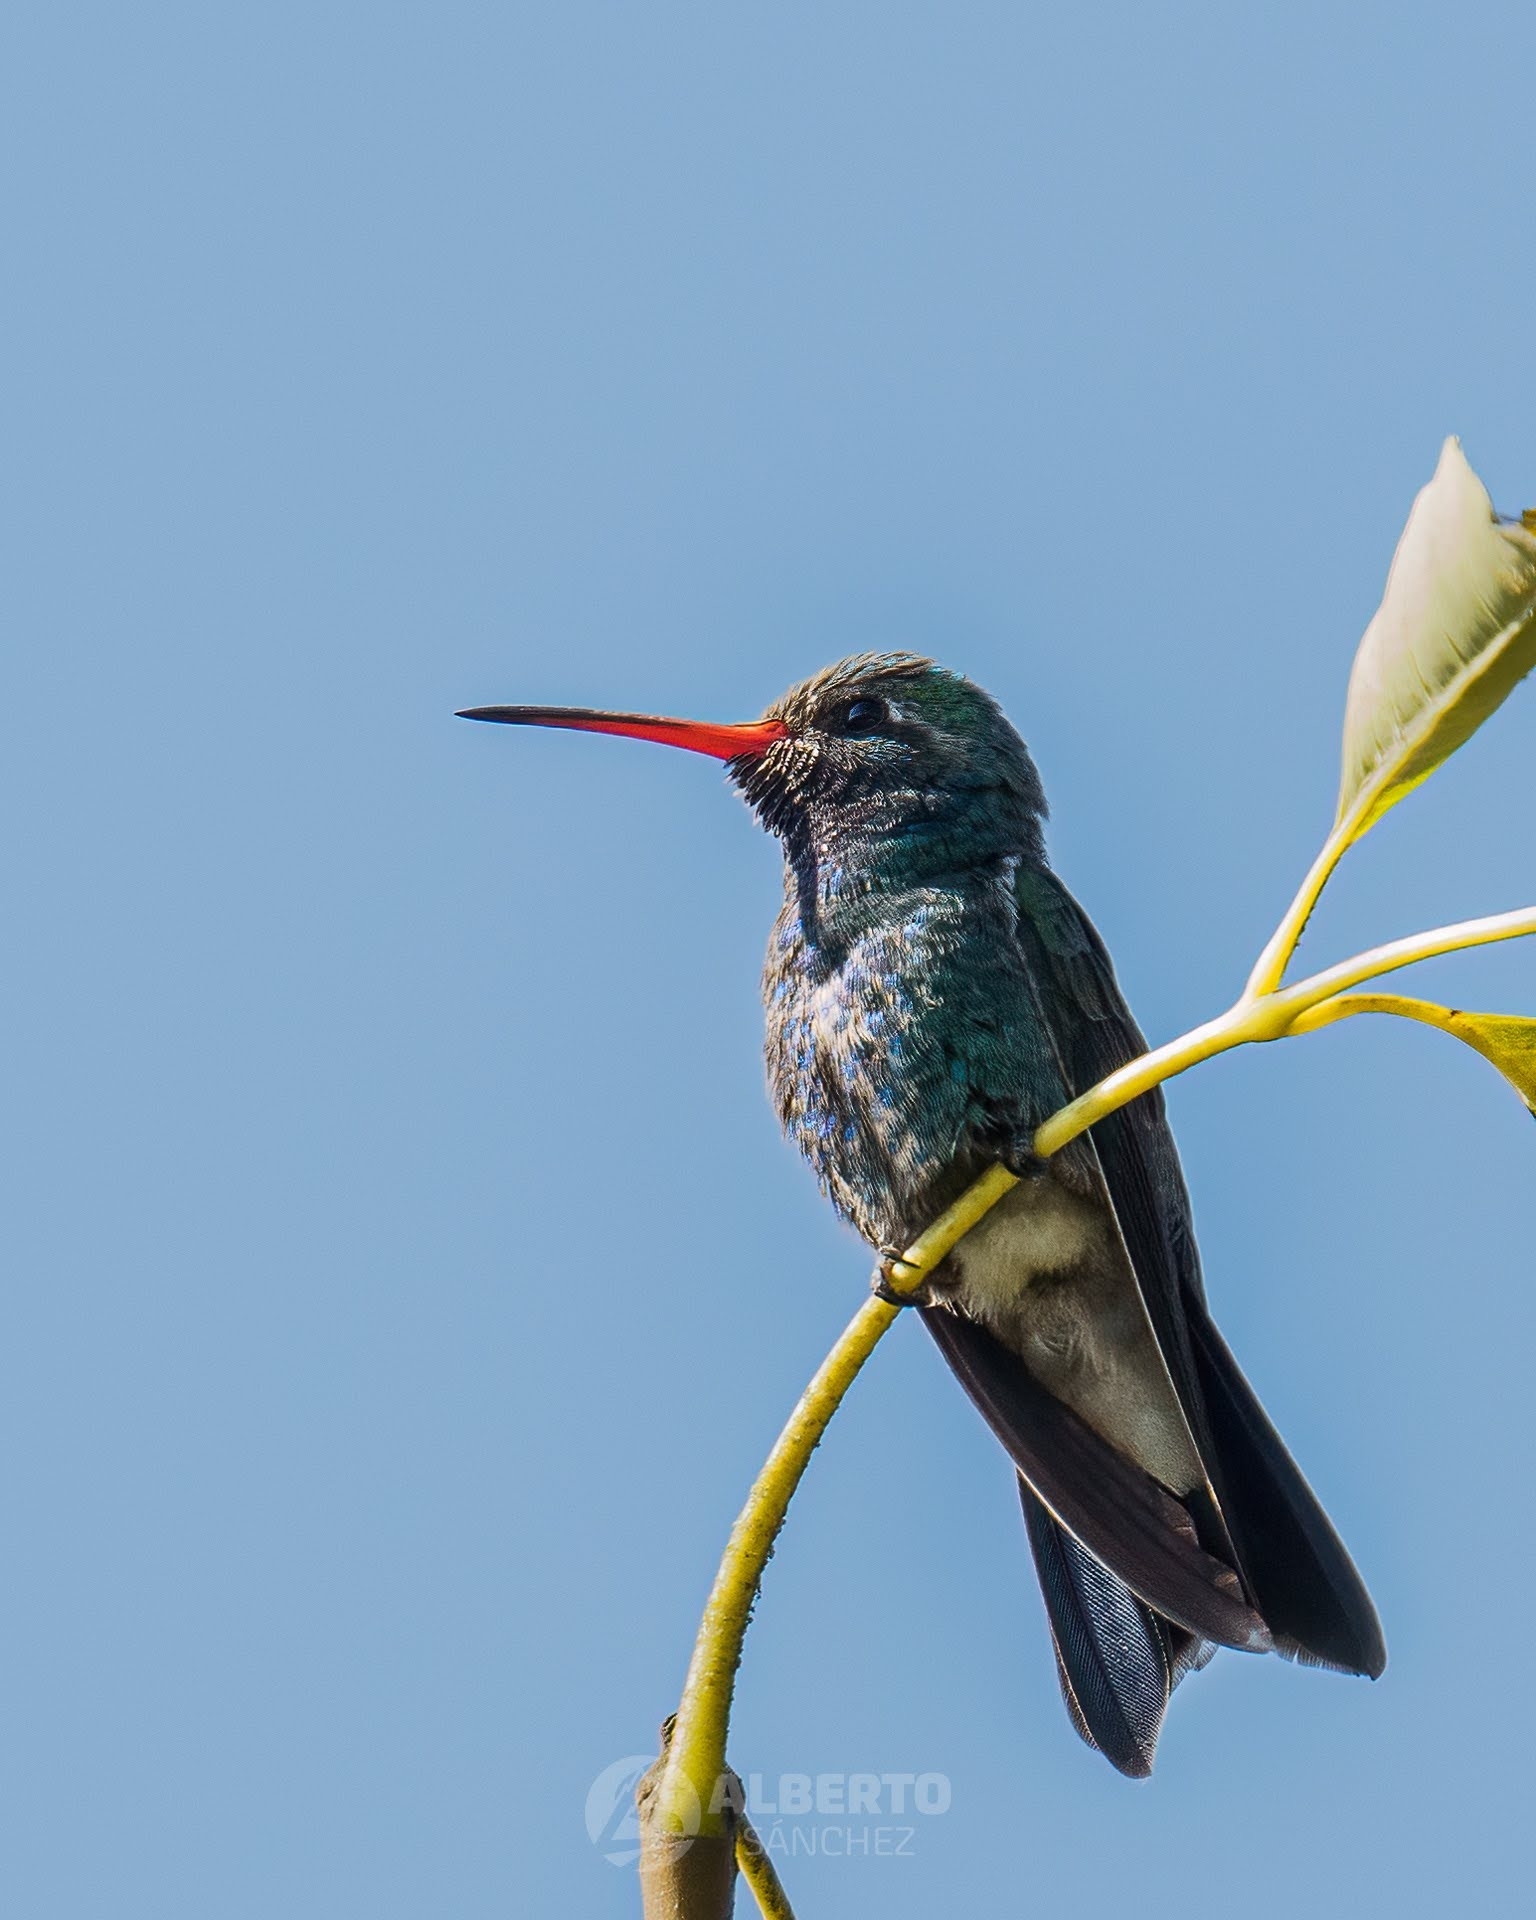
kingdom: Animalia
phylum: Chordata
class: Aves
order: Apodiformes
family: Trochilidae
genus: Cynanthus
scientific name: Cynanthus latirostris
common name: Broad-billed hummingbird
